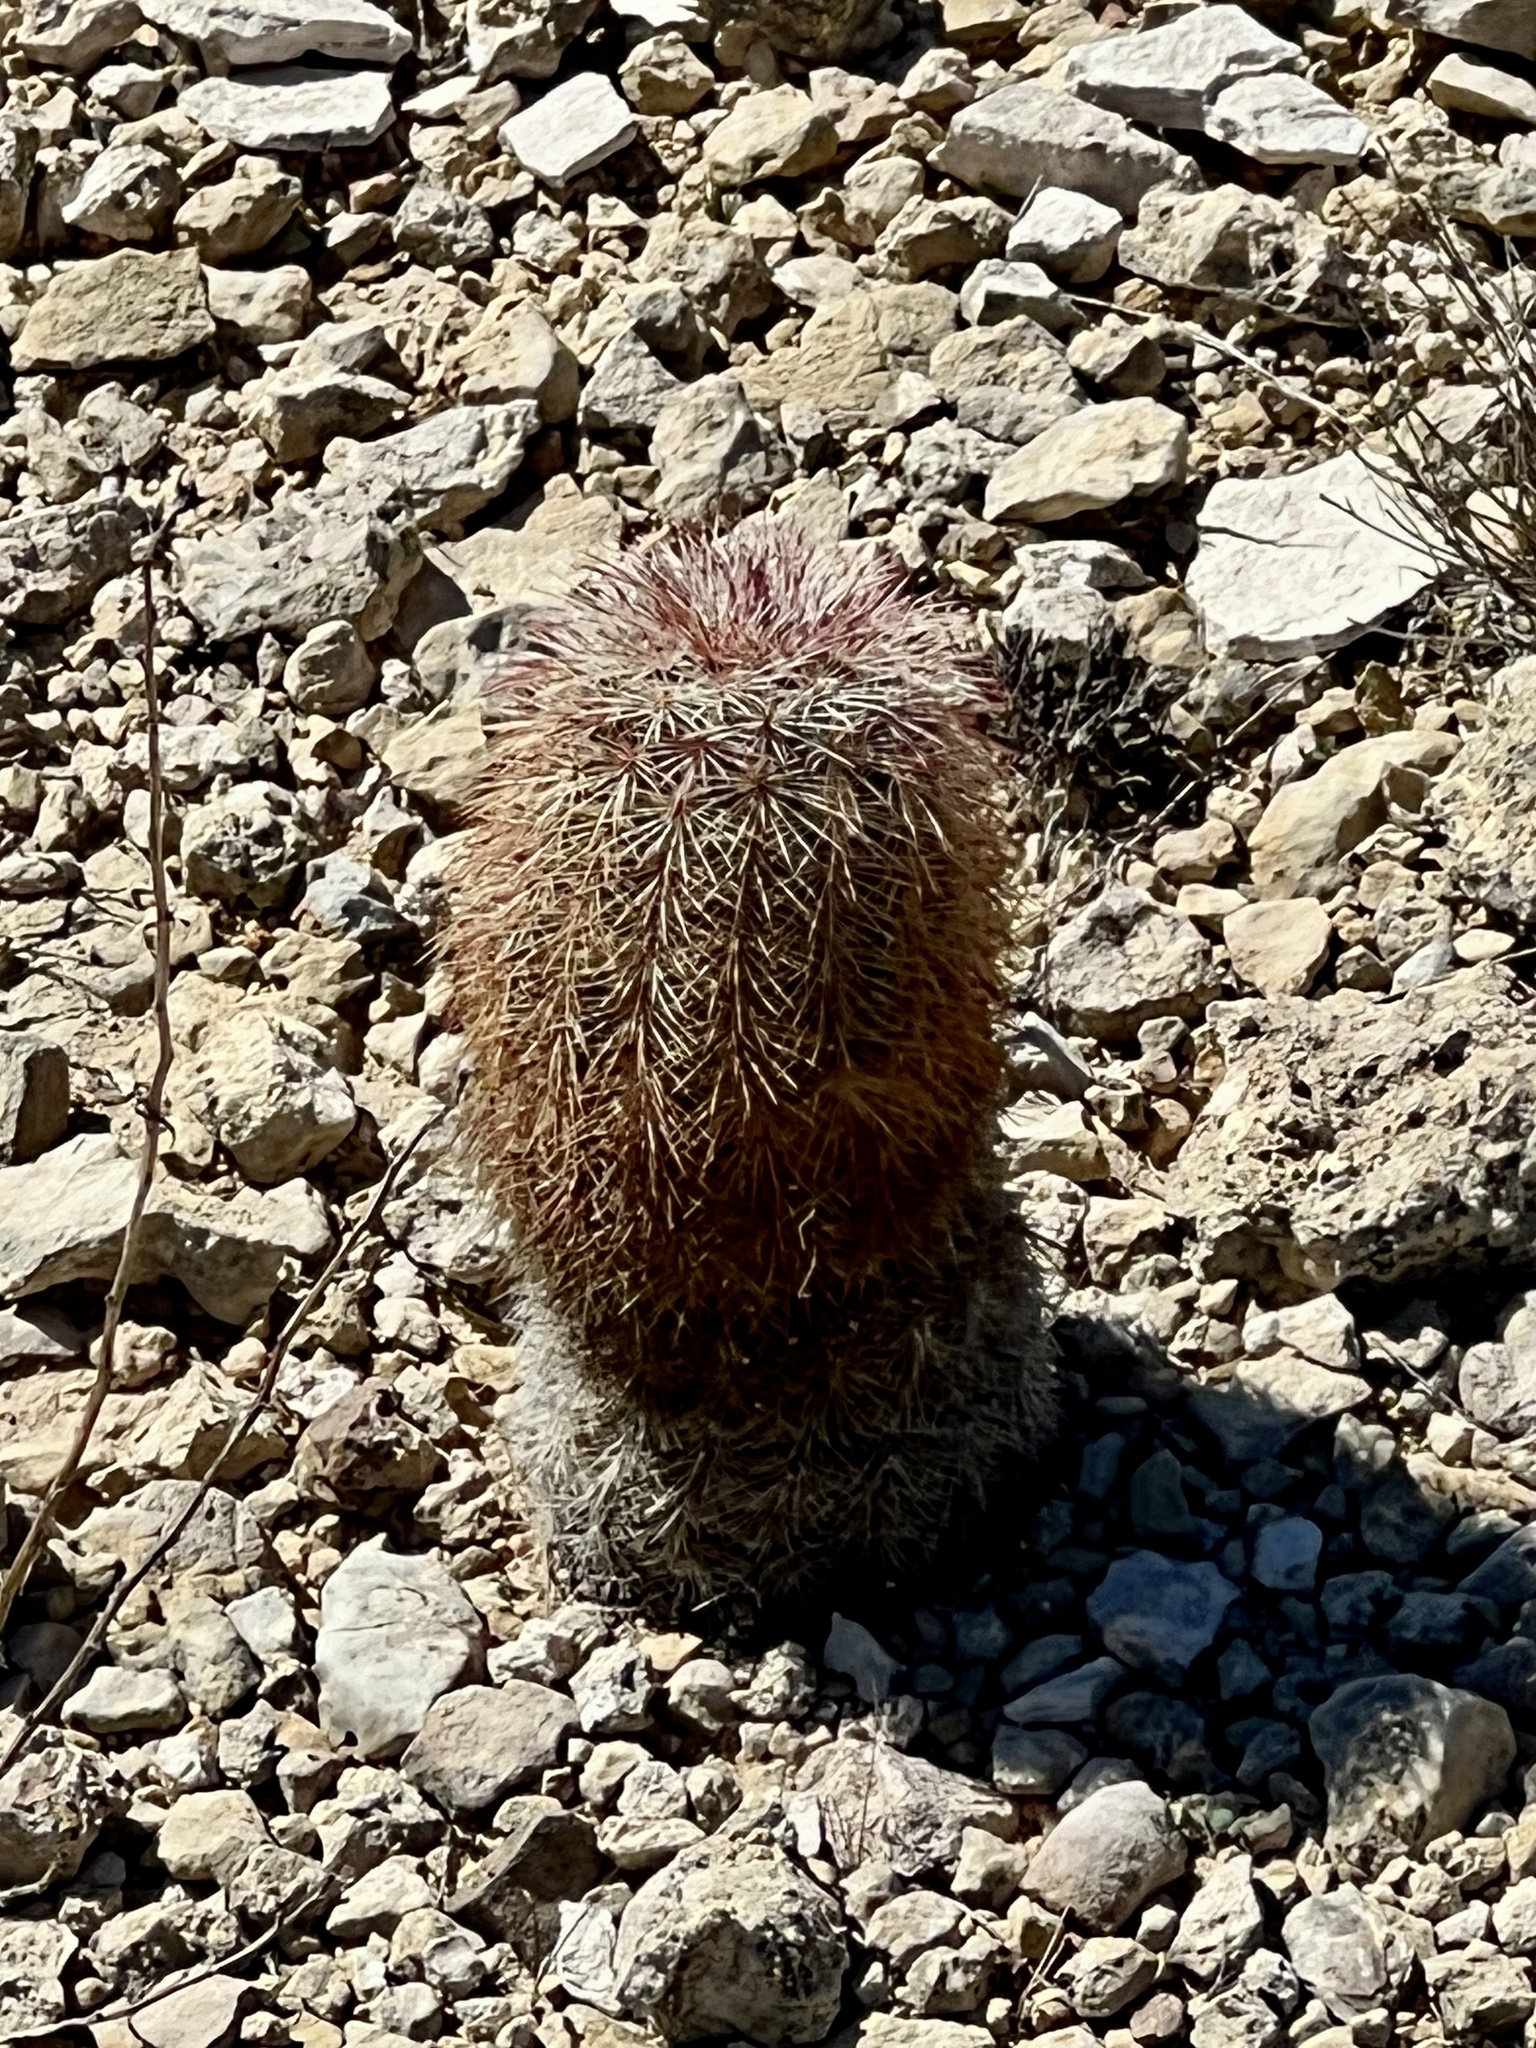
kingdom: Plantae
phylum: Tracheophyta
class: Magnoliopsida
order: Caryophyllales
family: Cactaceae
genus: Echinocereus
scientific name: Echinocereus dasyacanthus
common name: Spiny hedgehog cactus
